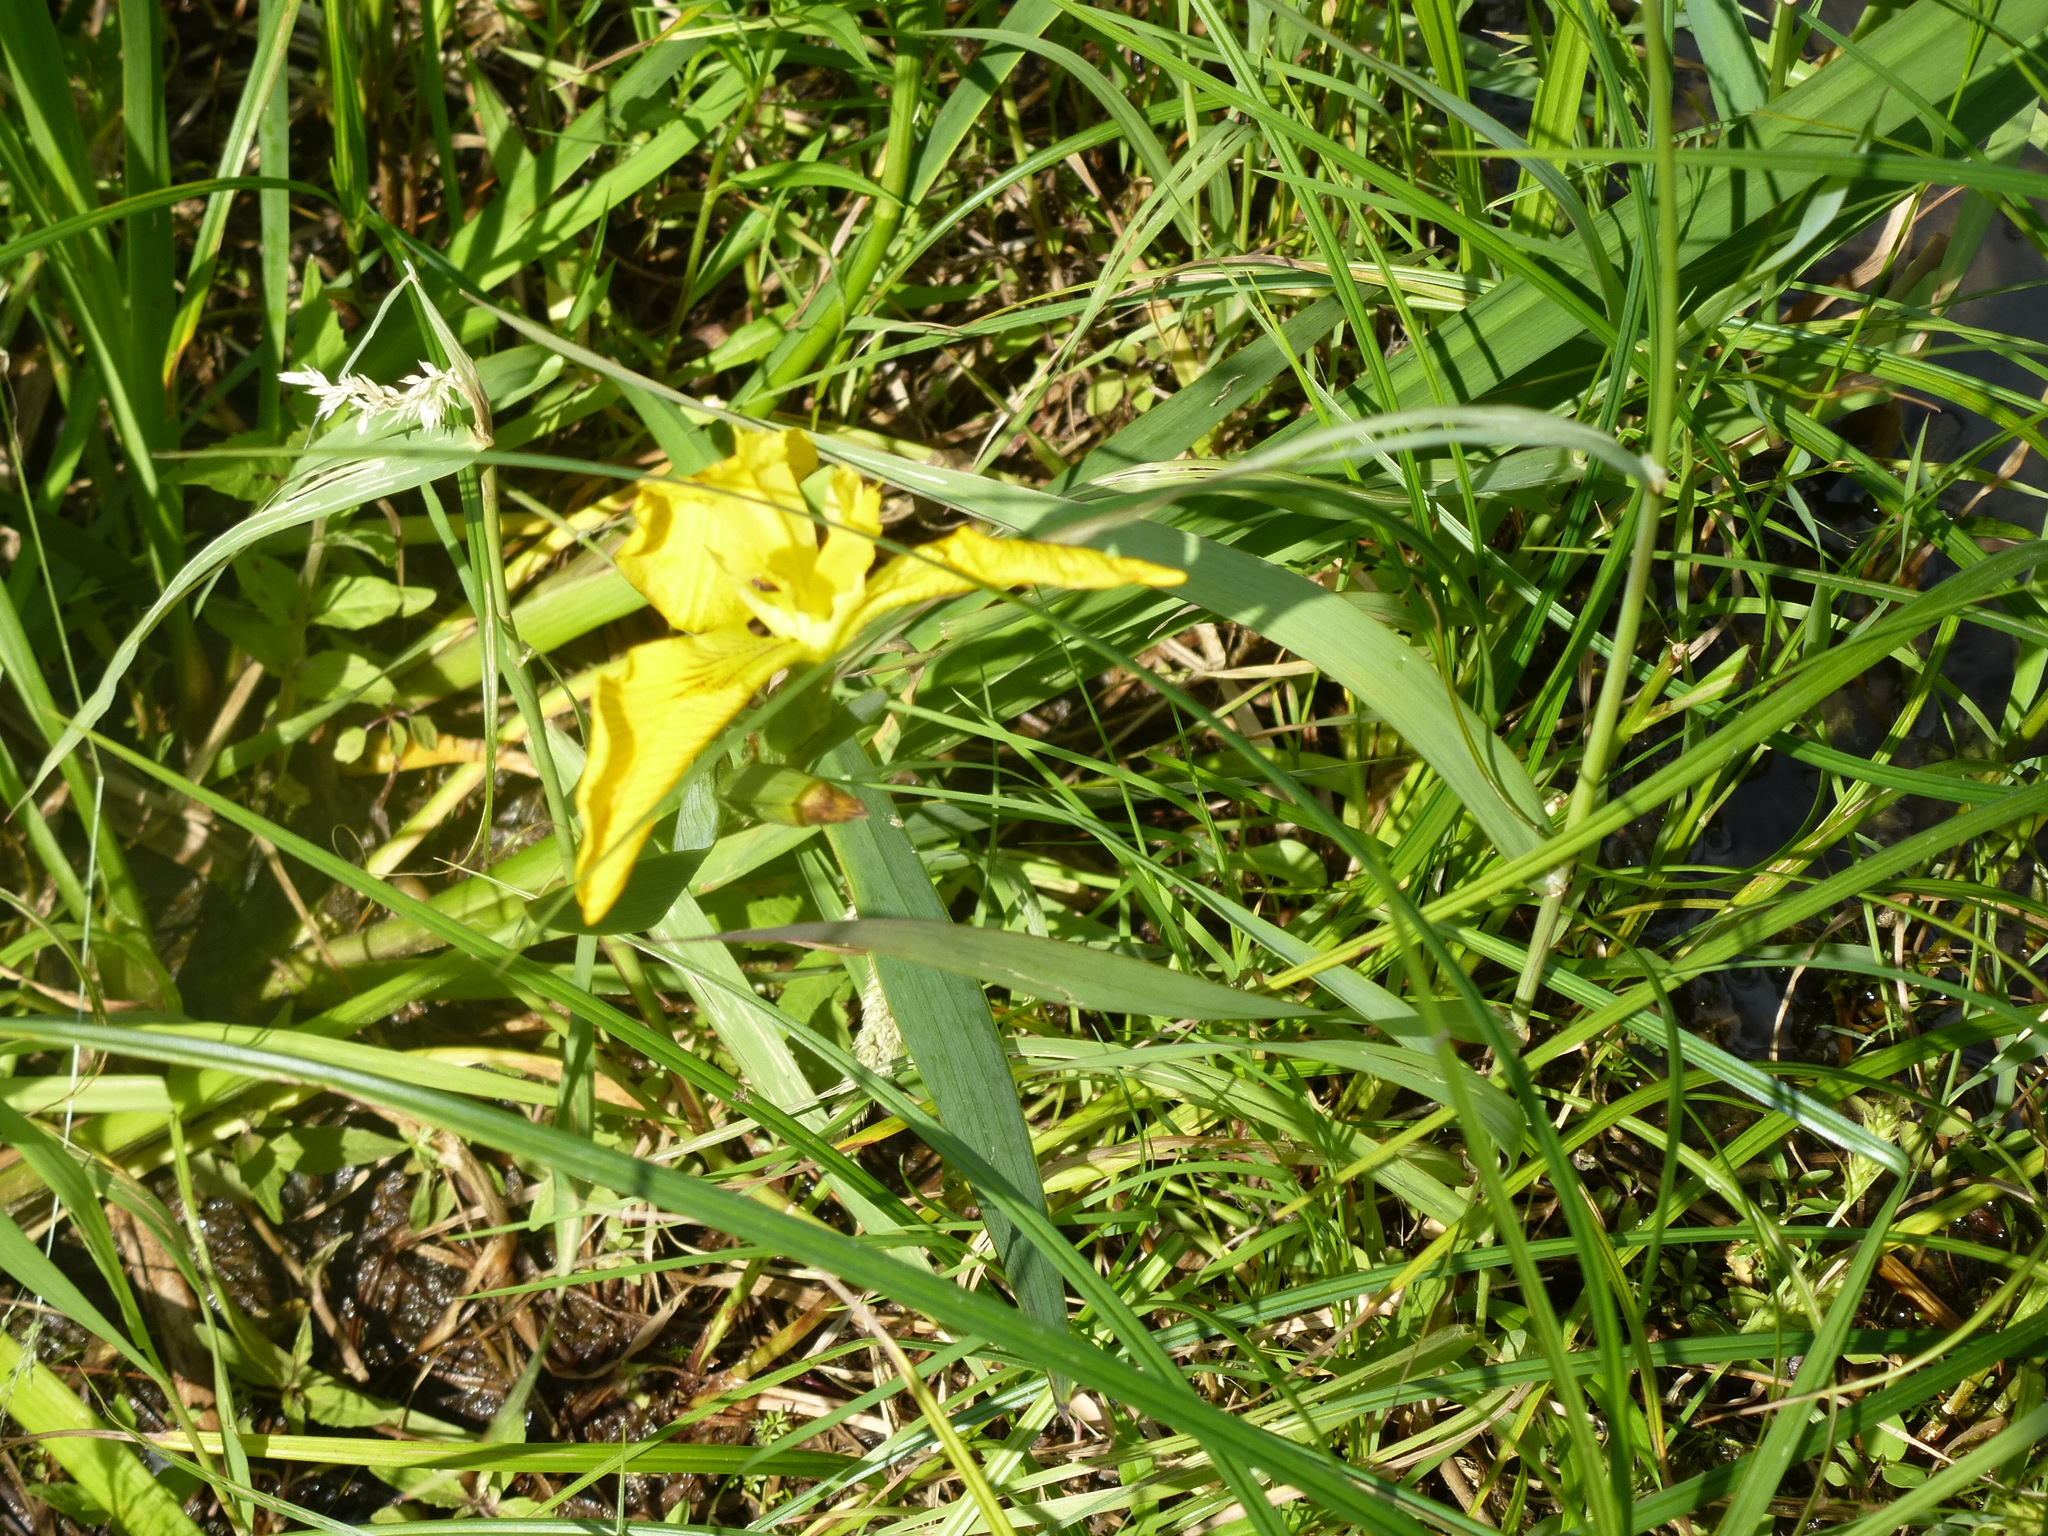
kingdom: Plantae
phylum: Tracheophyta
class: Liliopsida
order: Asparagales
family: Iridaceae
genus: Iris
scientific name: Iris pseudacorus
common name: Yellow flag
